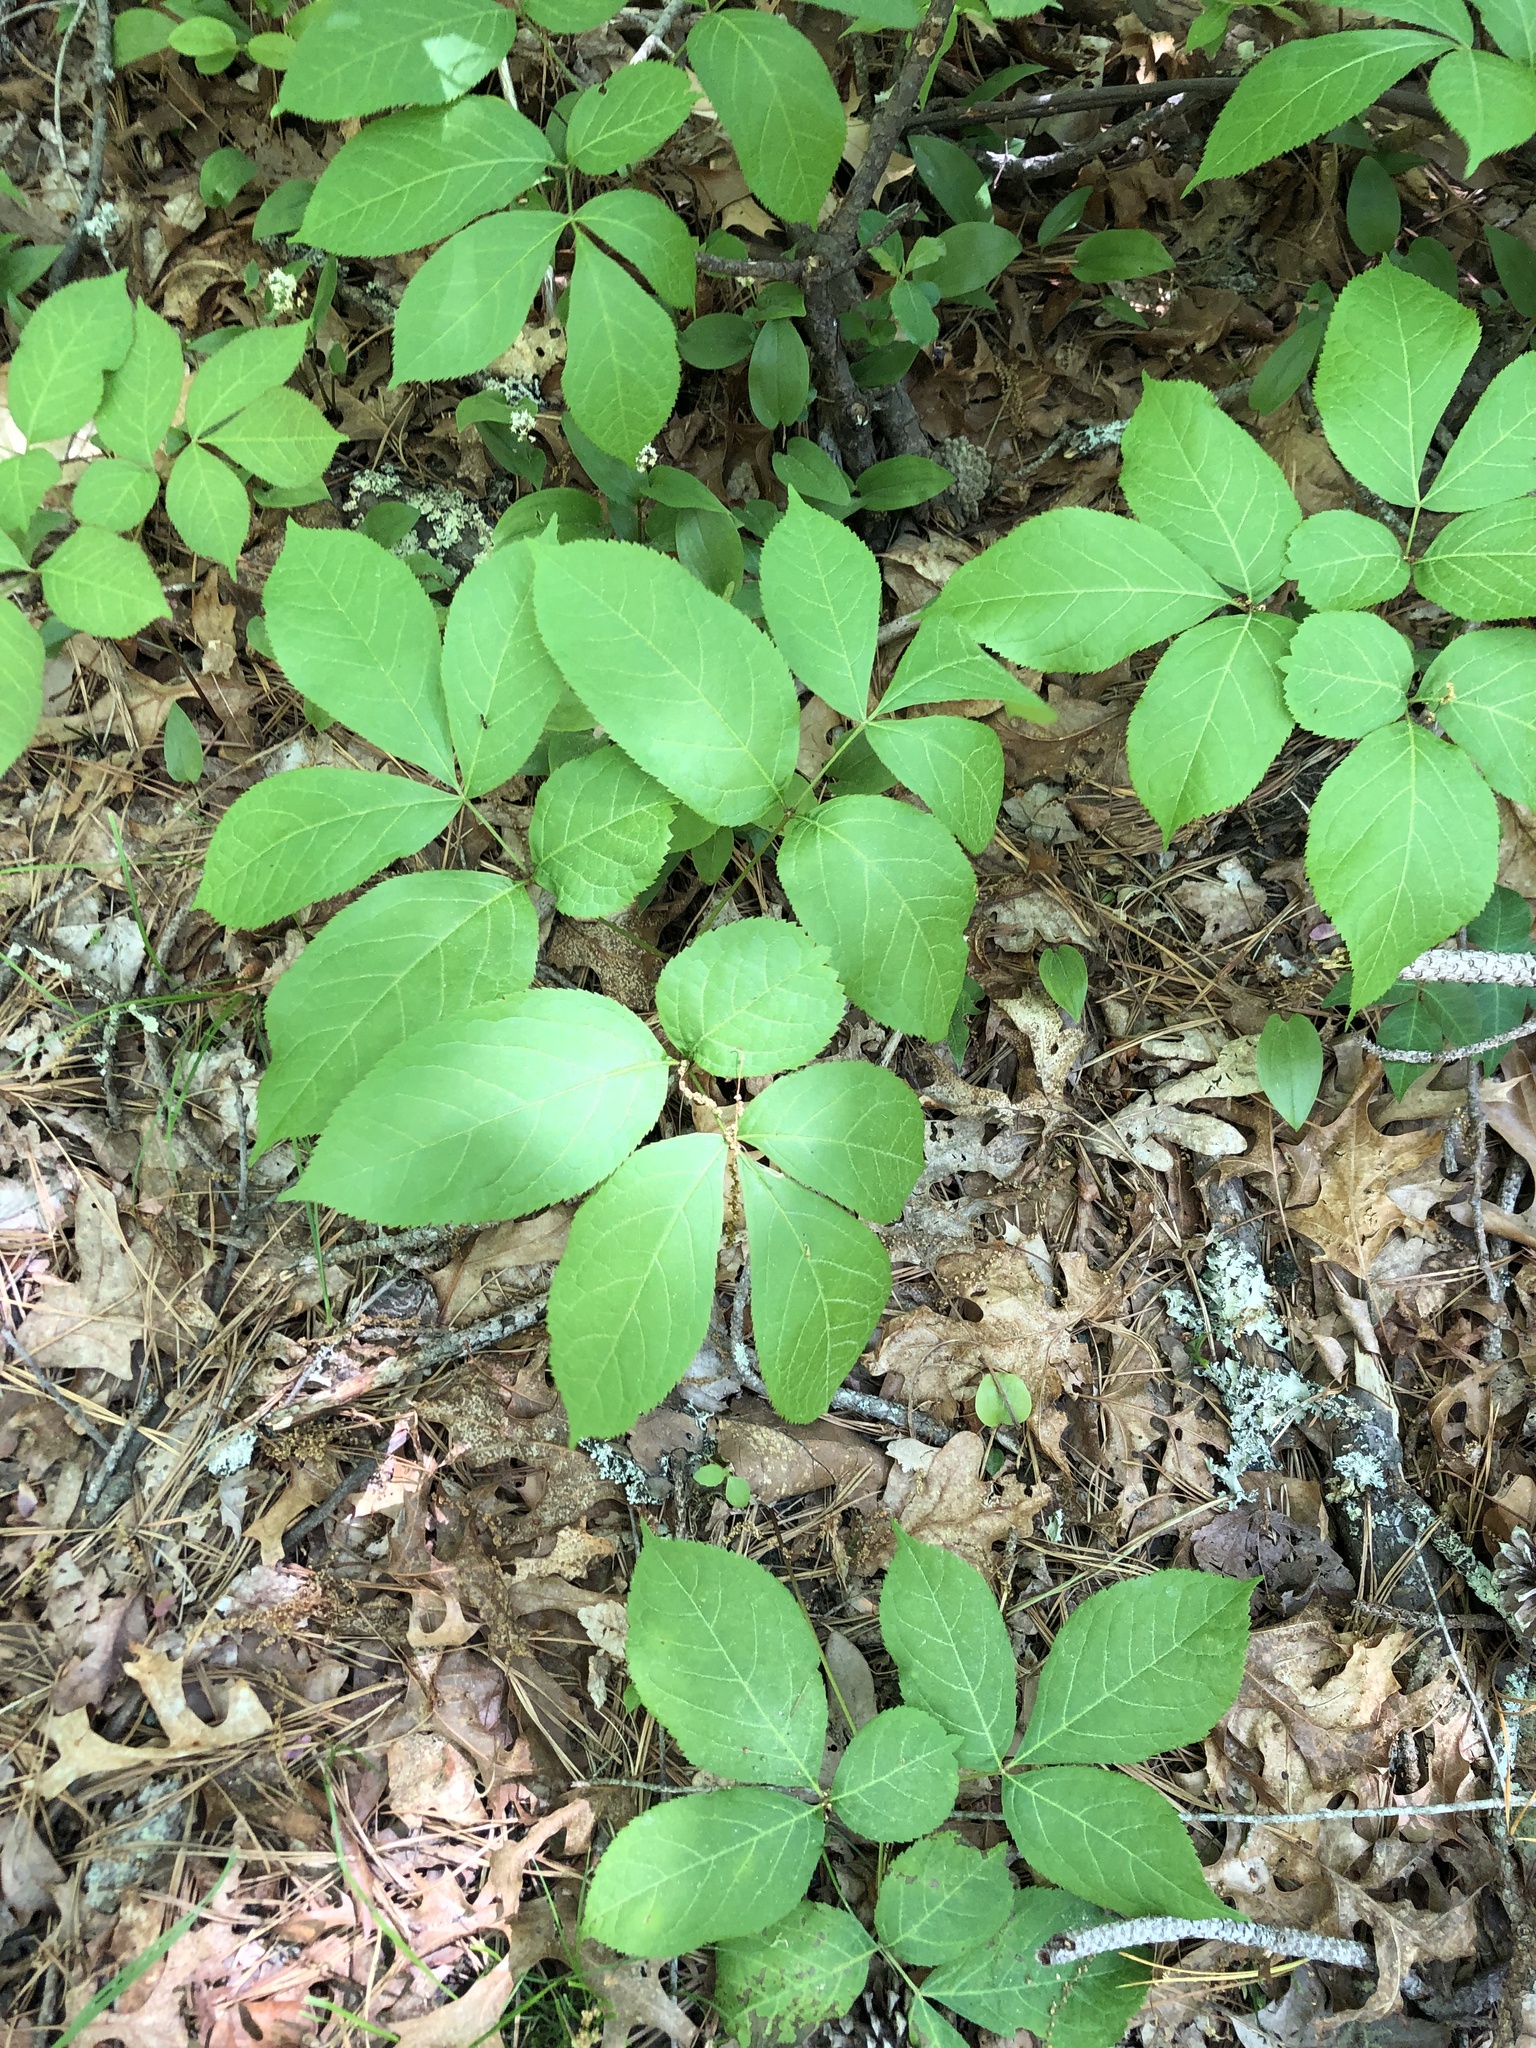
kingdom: Plantae
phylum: Tracheophyta
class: Magnoliopsida
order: Apiales
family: Araliaceae
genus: Aralia
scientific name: Aralia nudicaulis
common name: Wild sarsaparilla
